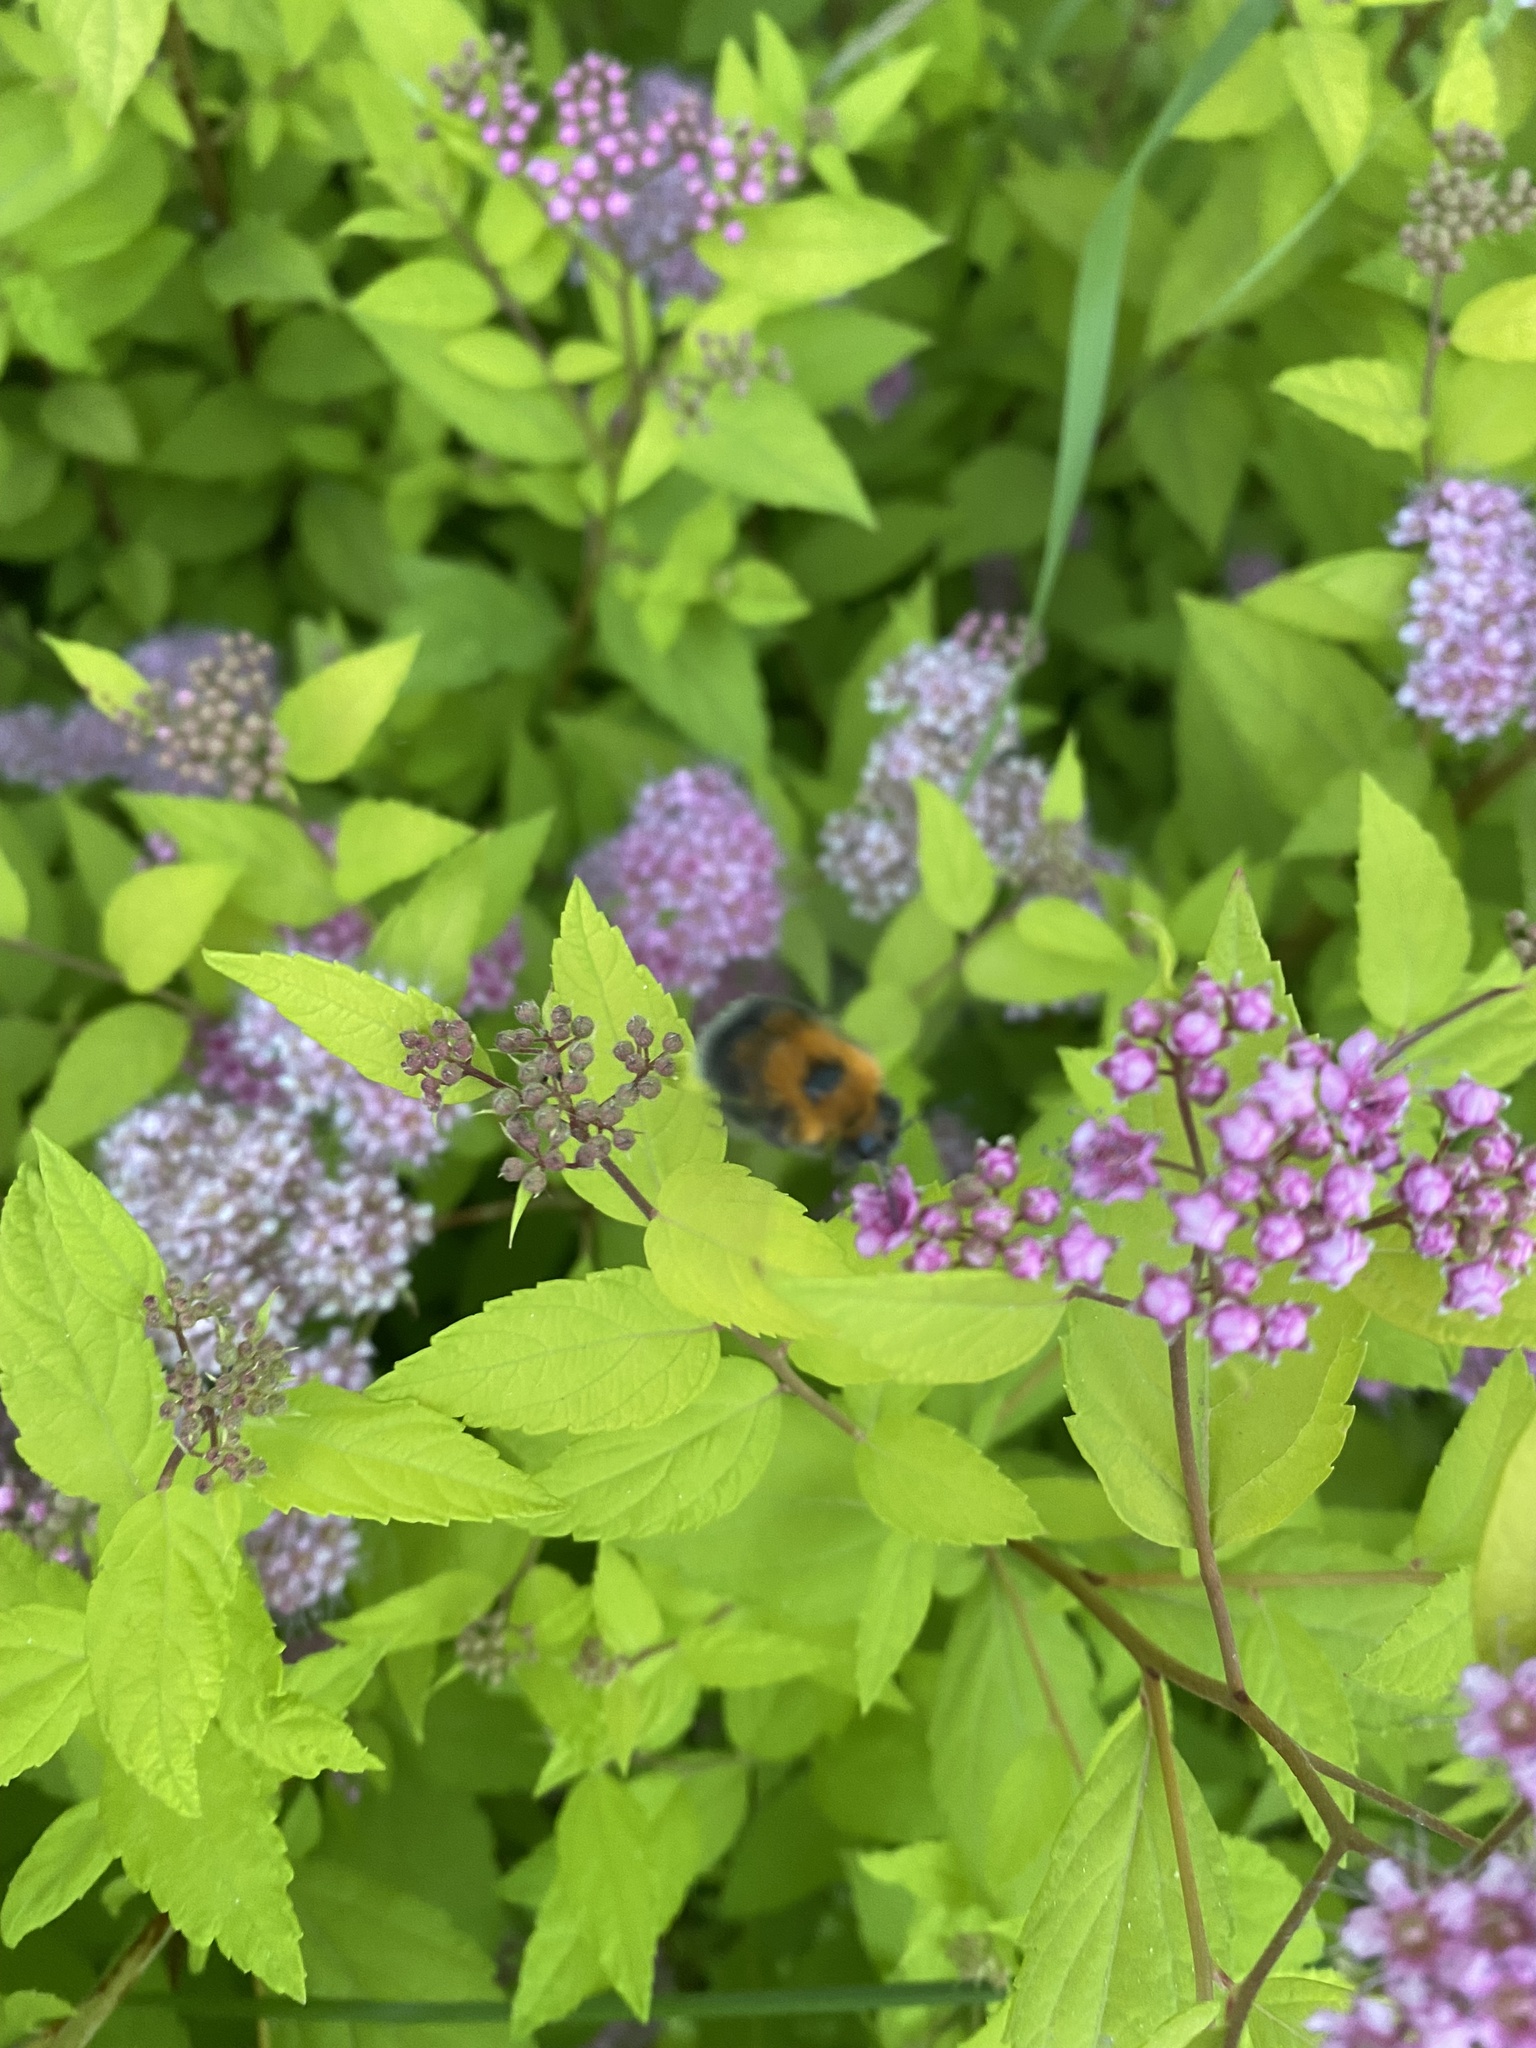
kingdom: Animalia
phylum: Arthropoda
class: Insecta
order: Hymenoptera
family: Apidae
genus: Bombus
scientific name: Bombus hypnorum
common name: New garden bumblebee
